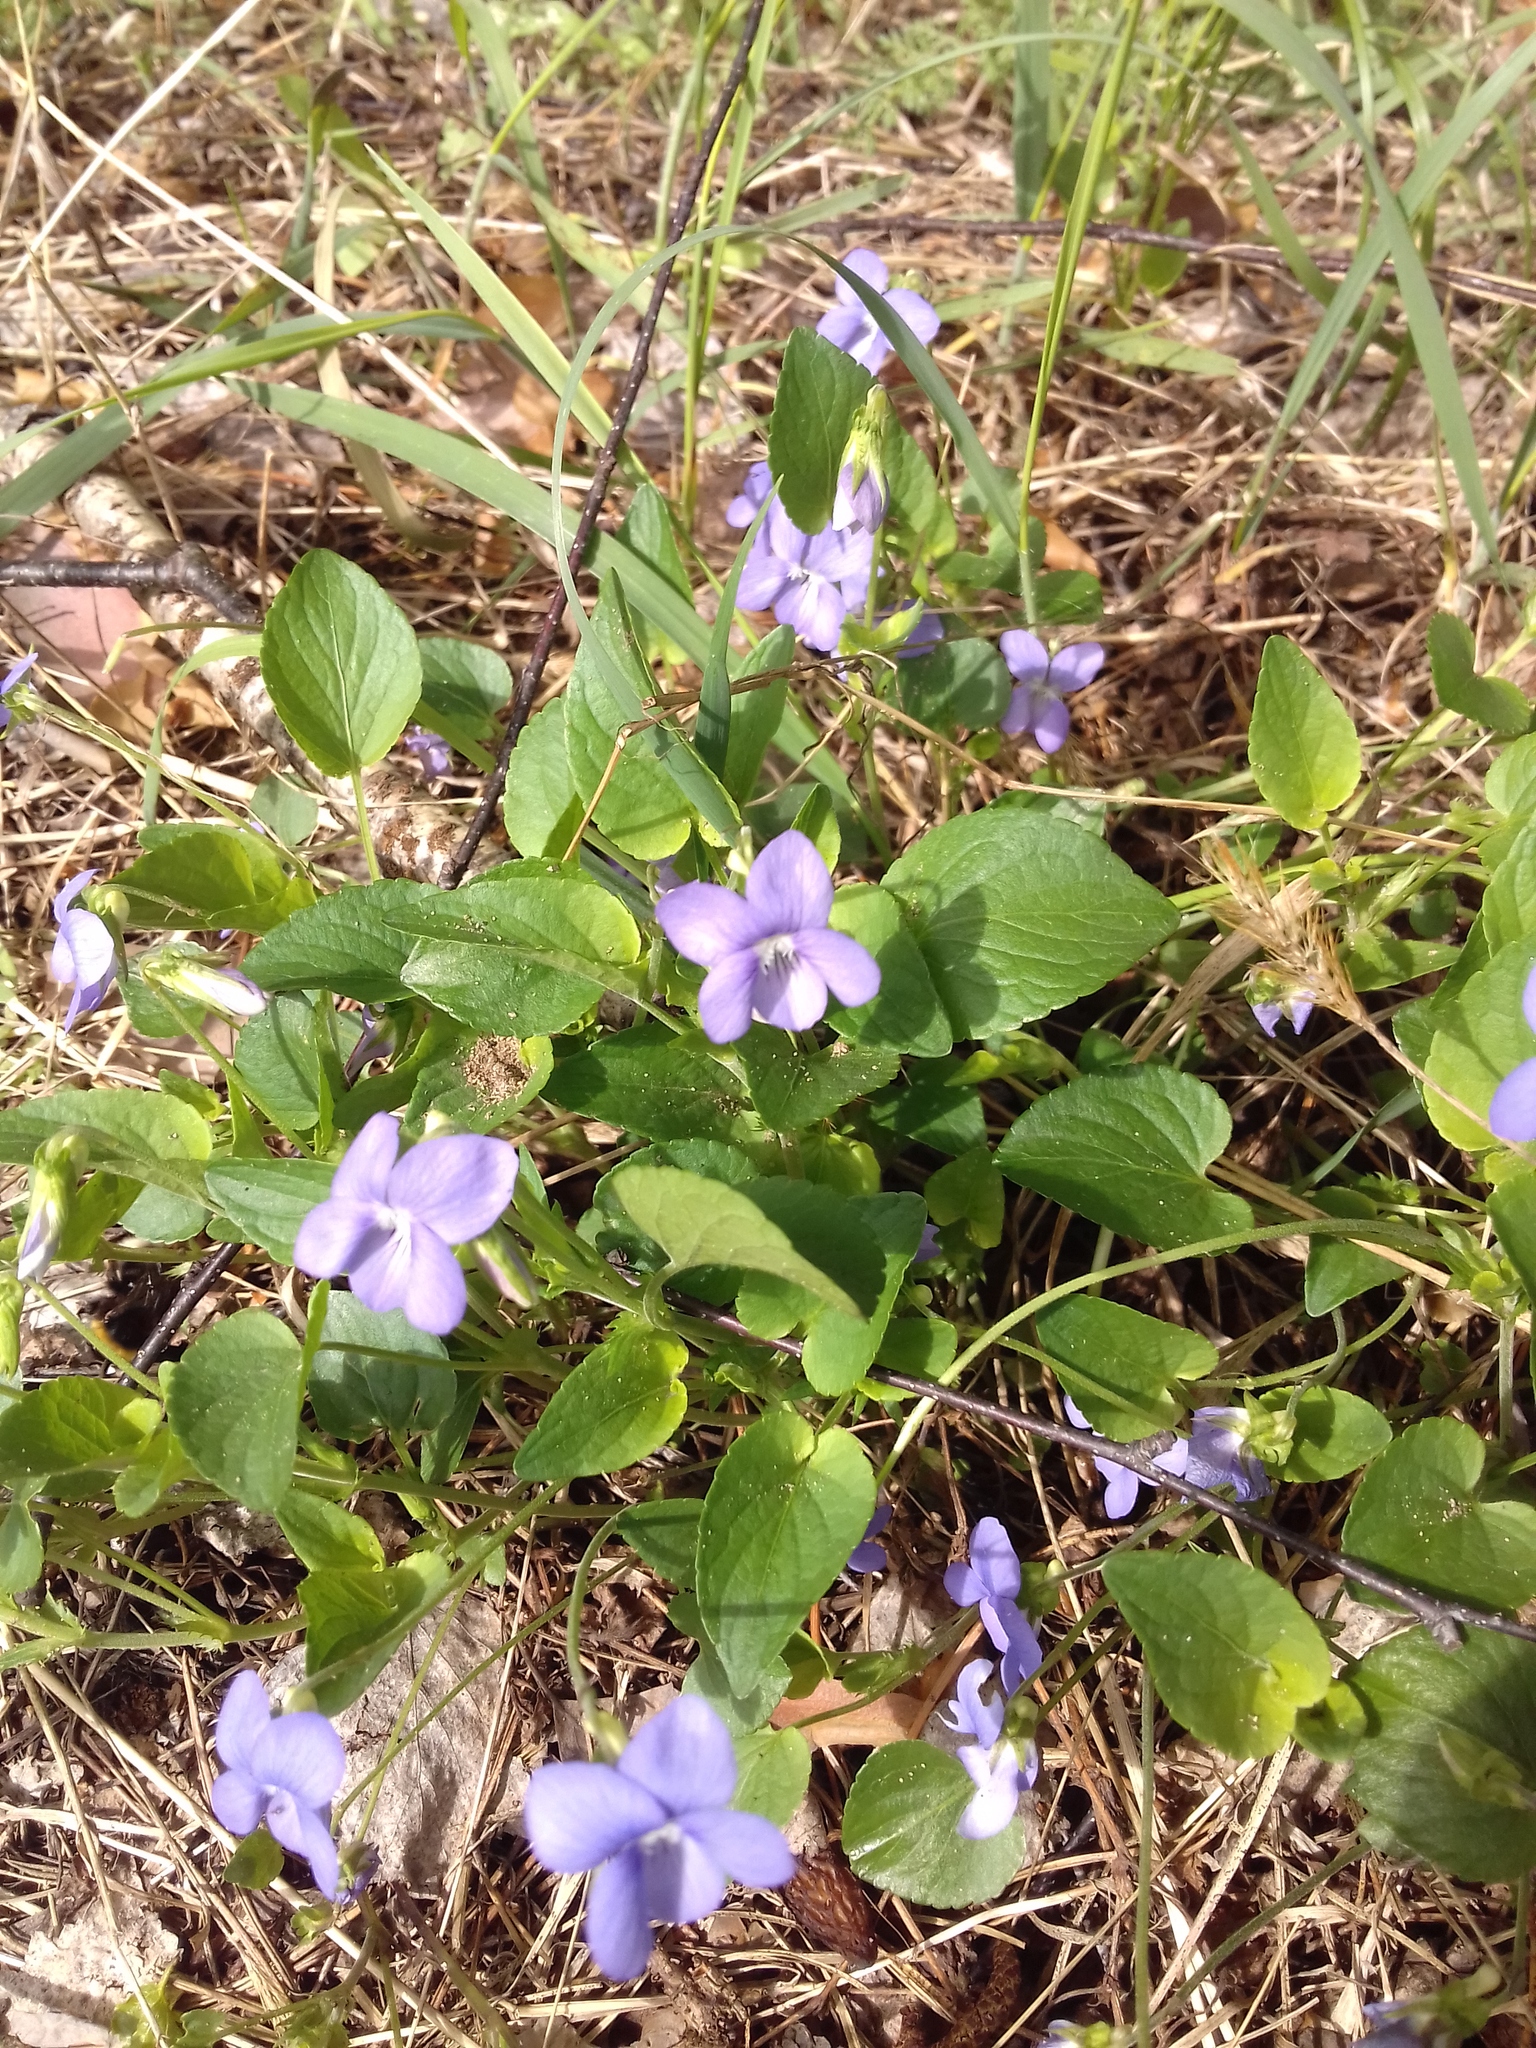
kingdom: Plantae
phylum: Tracheophyta
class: Magnoliopsida
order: Malpighiales
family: Violaceae
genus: Viola
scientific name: Viola canina
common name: Heath dog-violet
